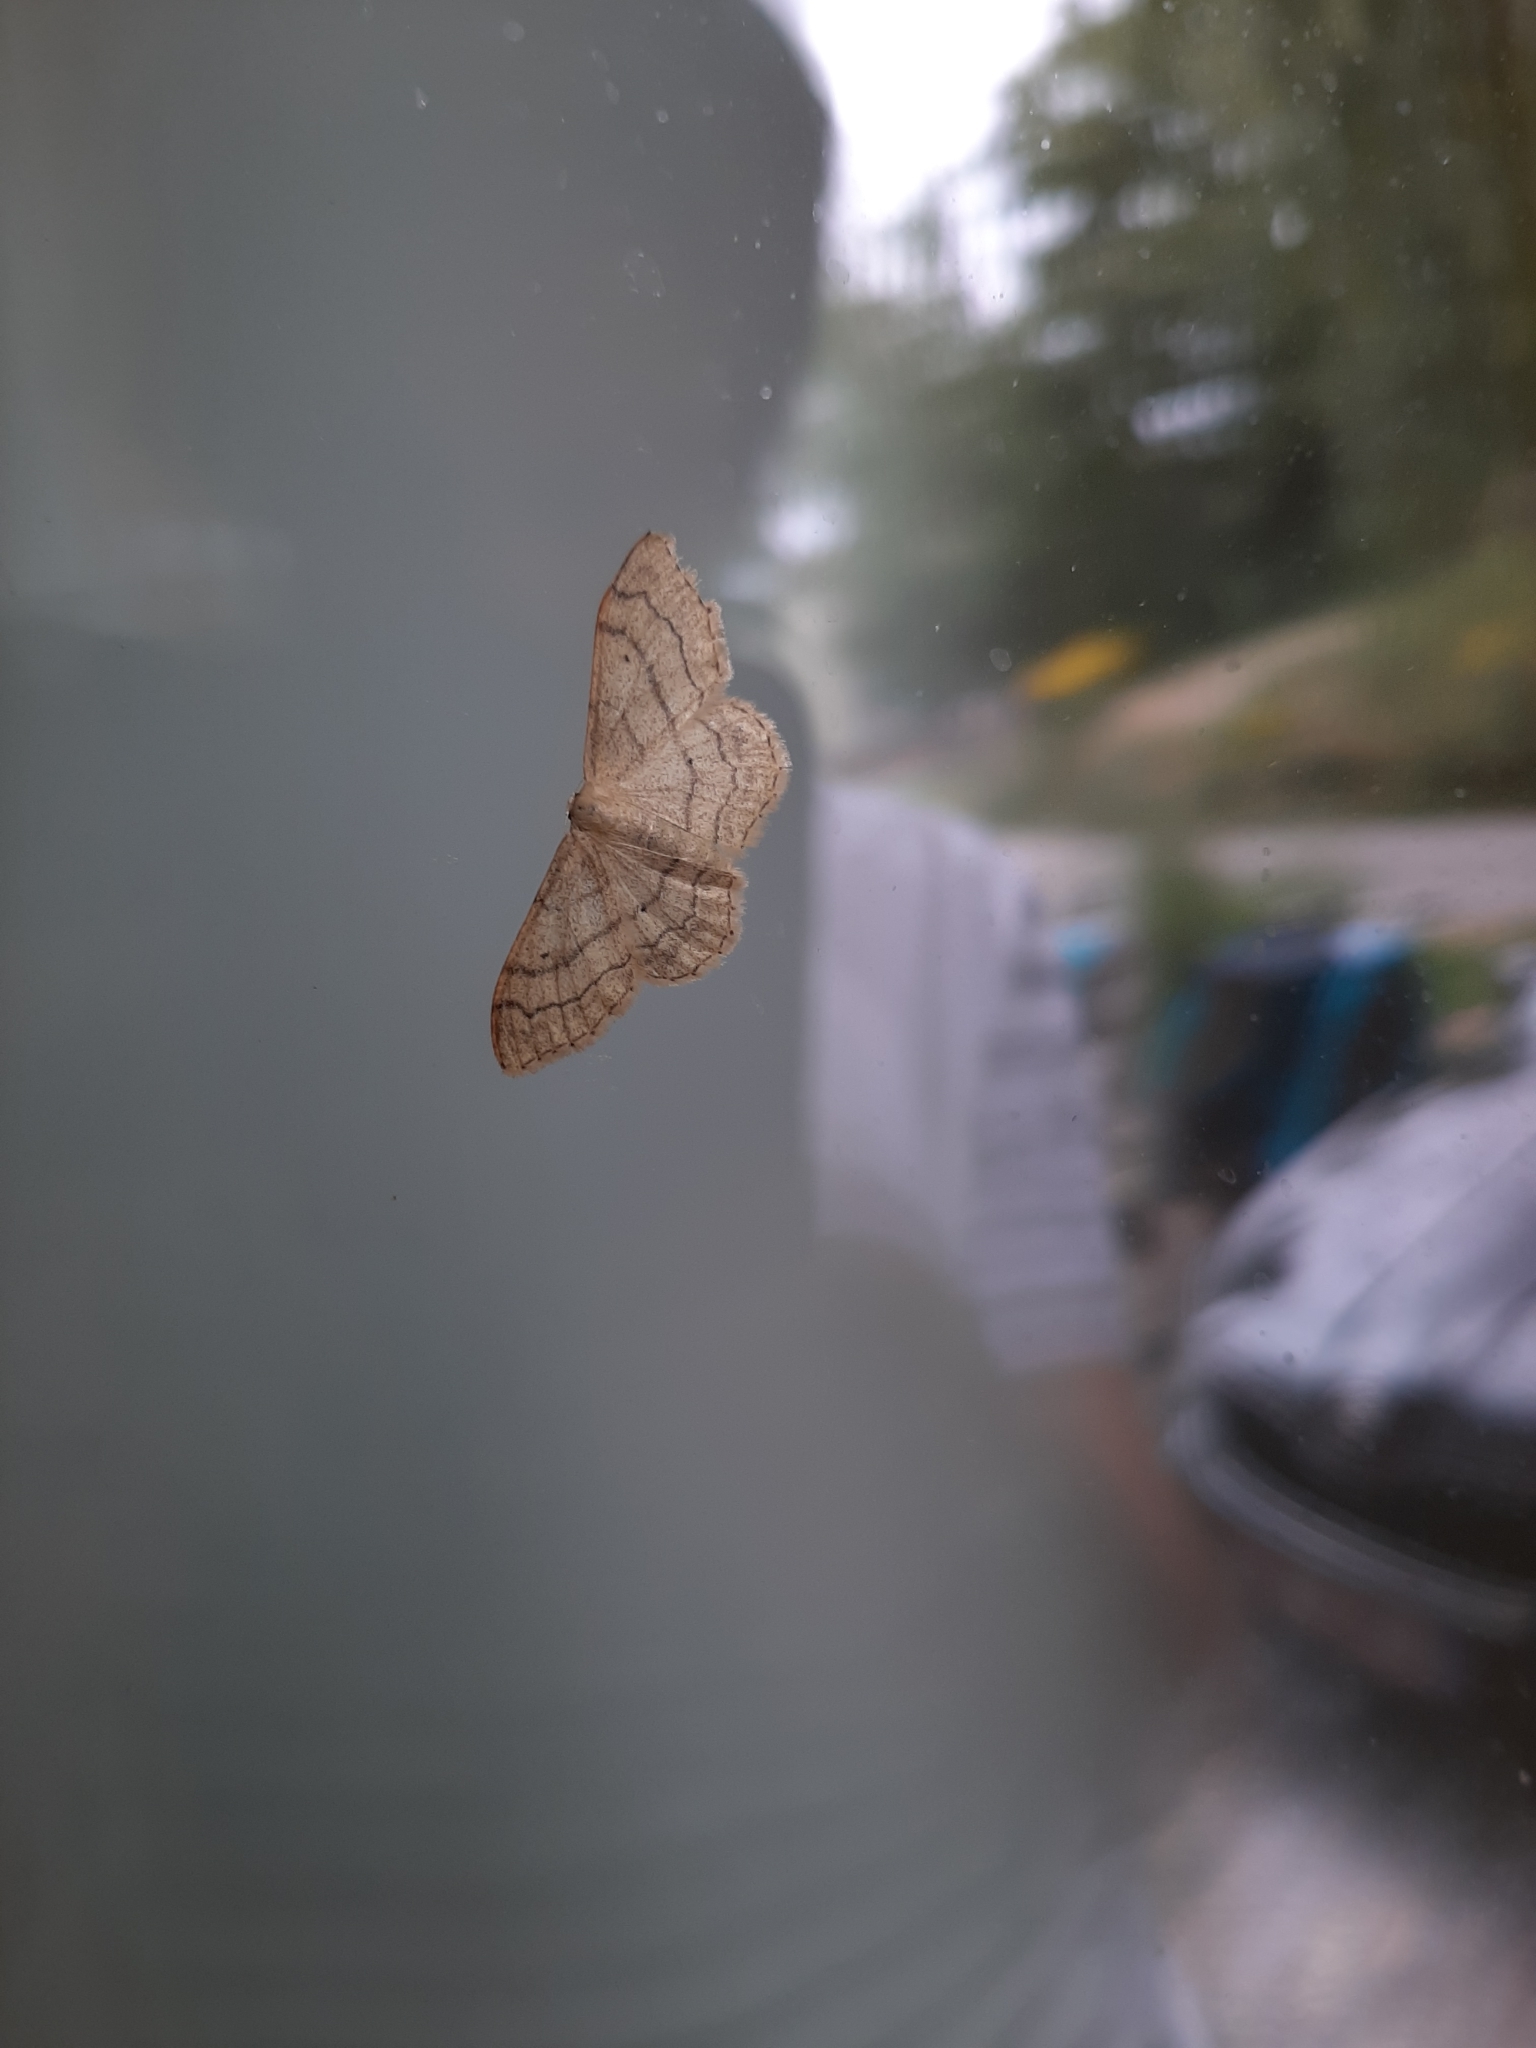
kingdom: Animalia
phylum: Arthropoda
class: Insecta
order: Lepidoptera
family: Geometridae
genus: Idaea
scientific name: Idaea aversata
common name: Riband wave
